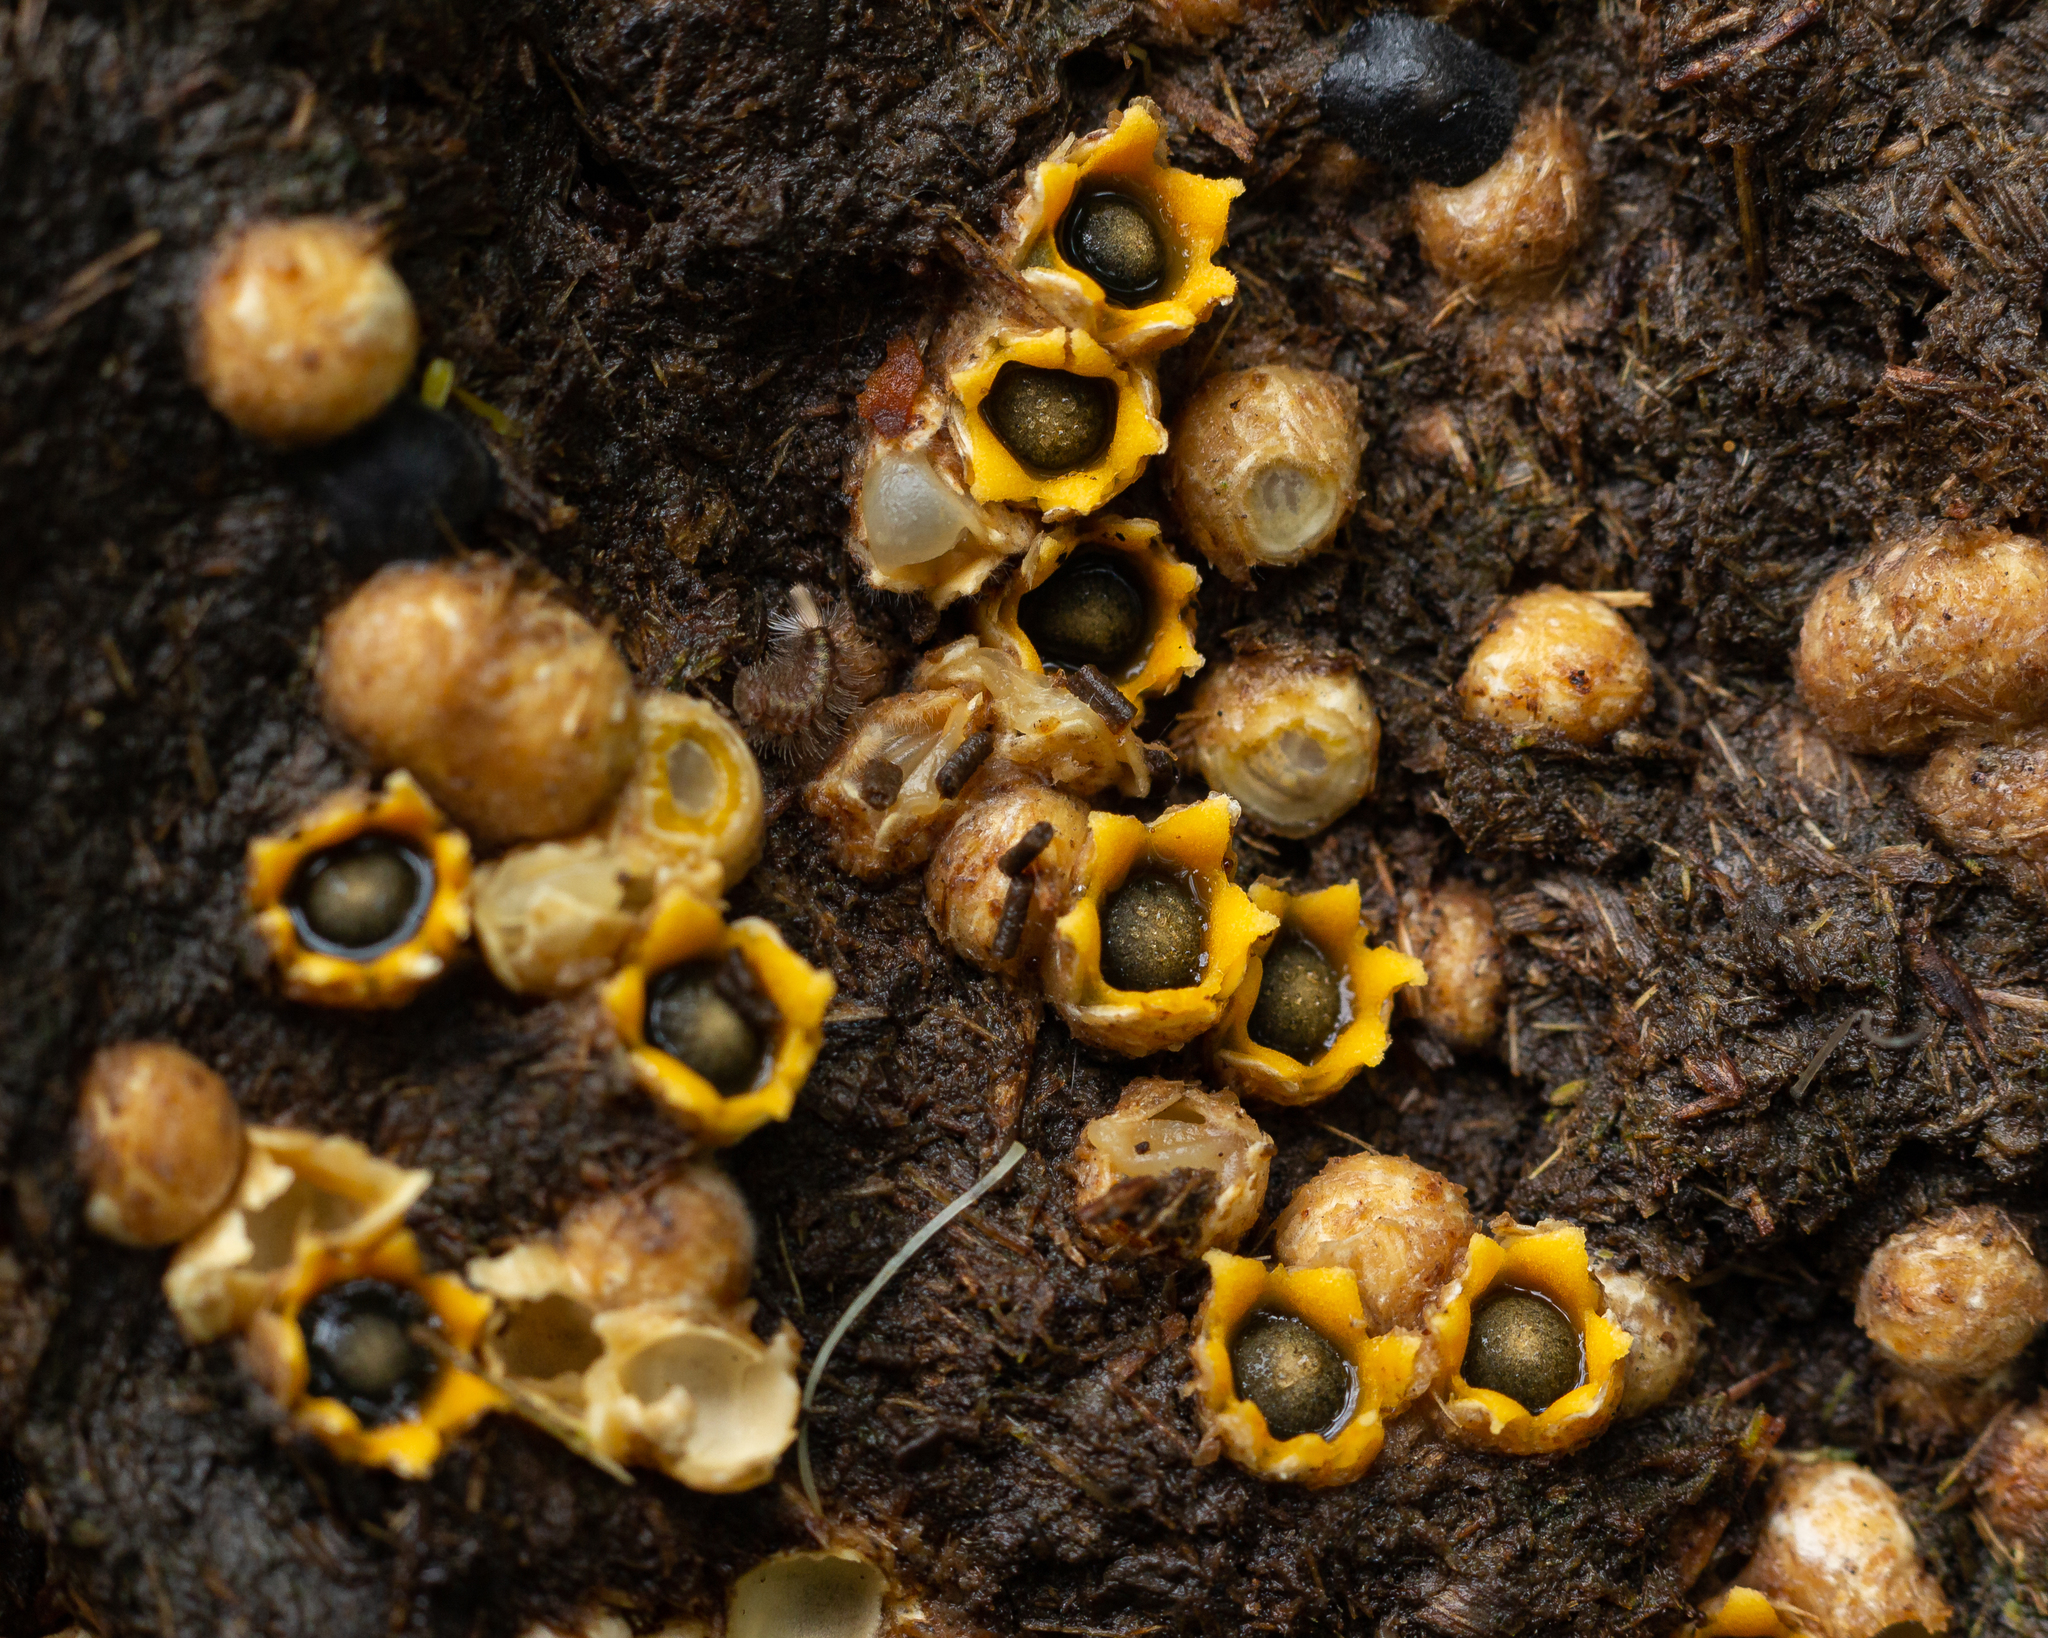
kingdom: Fungi
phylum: Basidiomycota
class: Agaricomycetes
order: Geastrales
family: Geastraceae
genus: Sphaerobolus
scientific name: Sphaerobolus stellatus
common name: Cannon fungus
